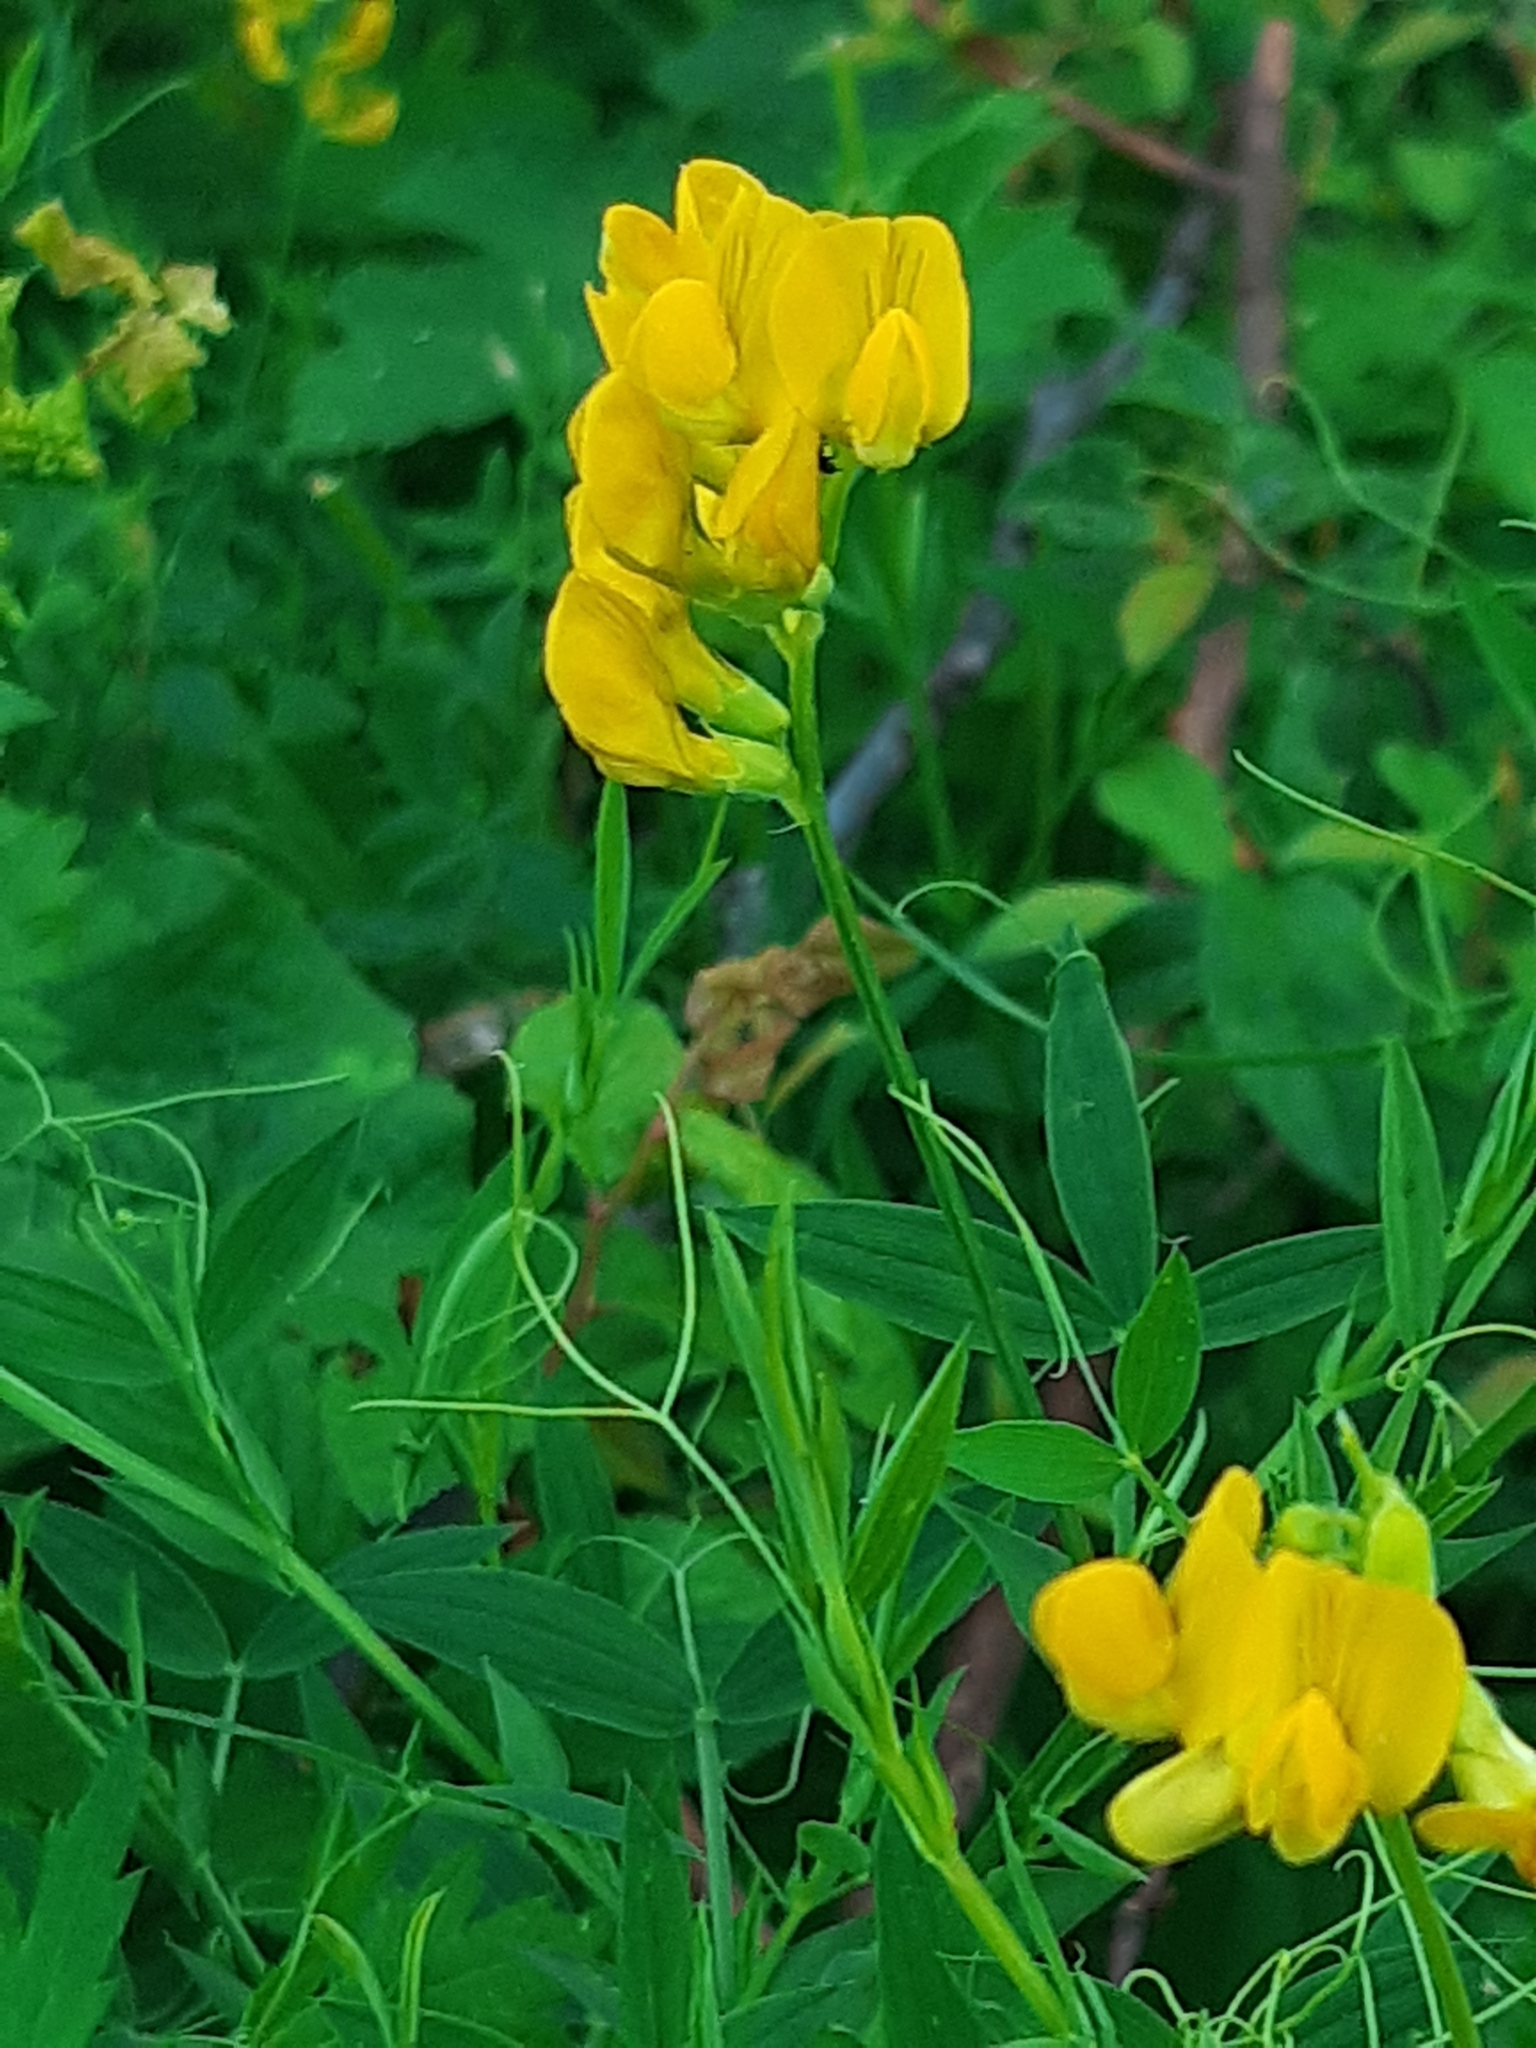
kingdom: Plantae
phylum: Tracheophyta
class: Magnoliopsida
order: Fabales
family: Fabaceae
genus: Lathyrus
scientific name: Lathyrus pratensis
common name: Meadow vetchling
